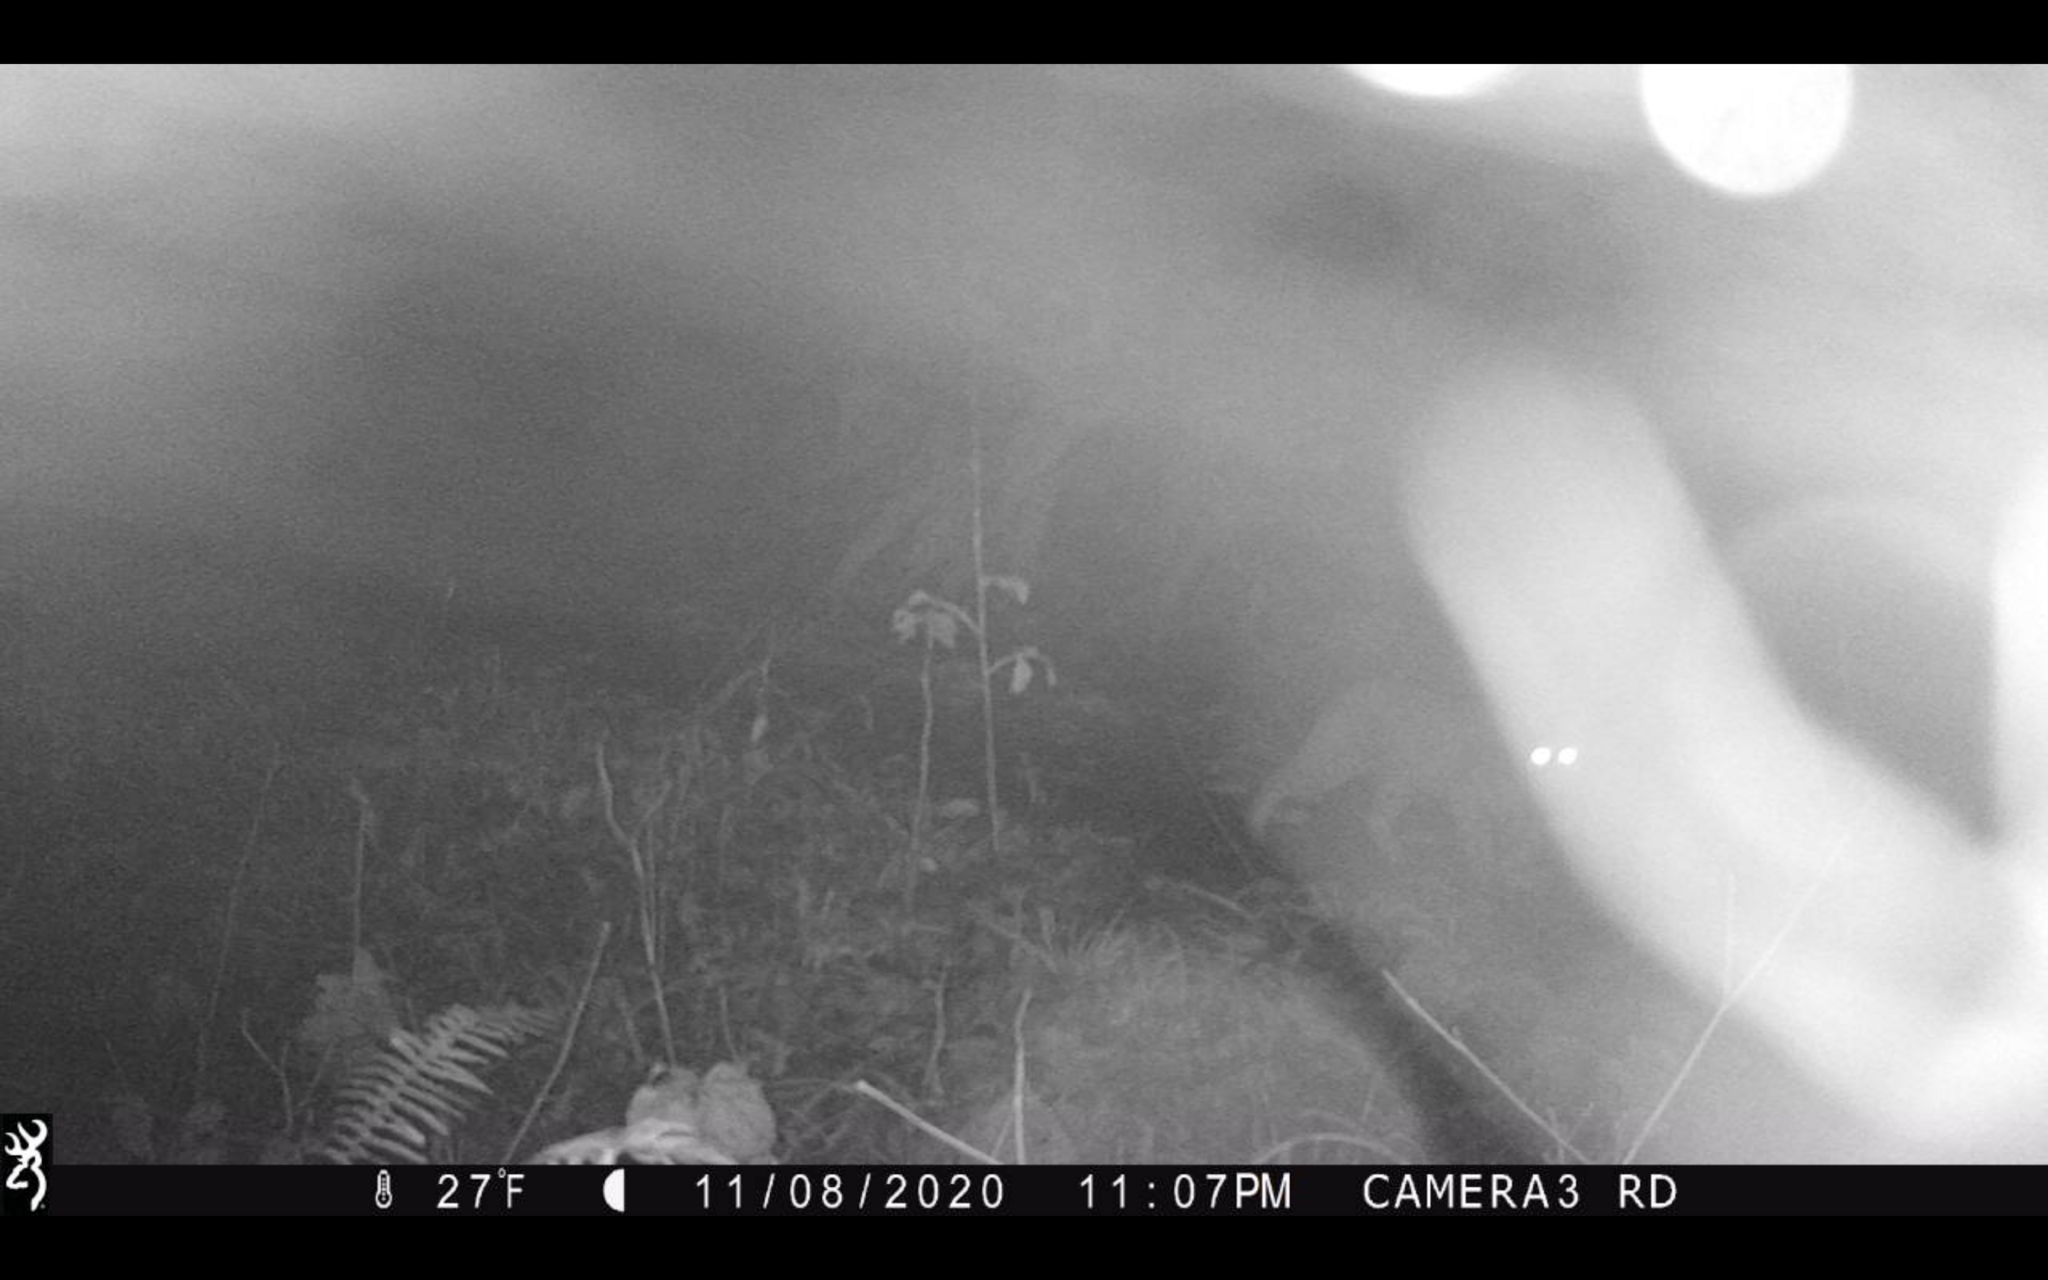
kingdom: Animalia
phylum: Chordata
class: Mammalia
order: Carnivora
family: Felidae
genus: Lynx
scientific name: Lynx rufus
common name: Bobcat
